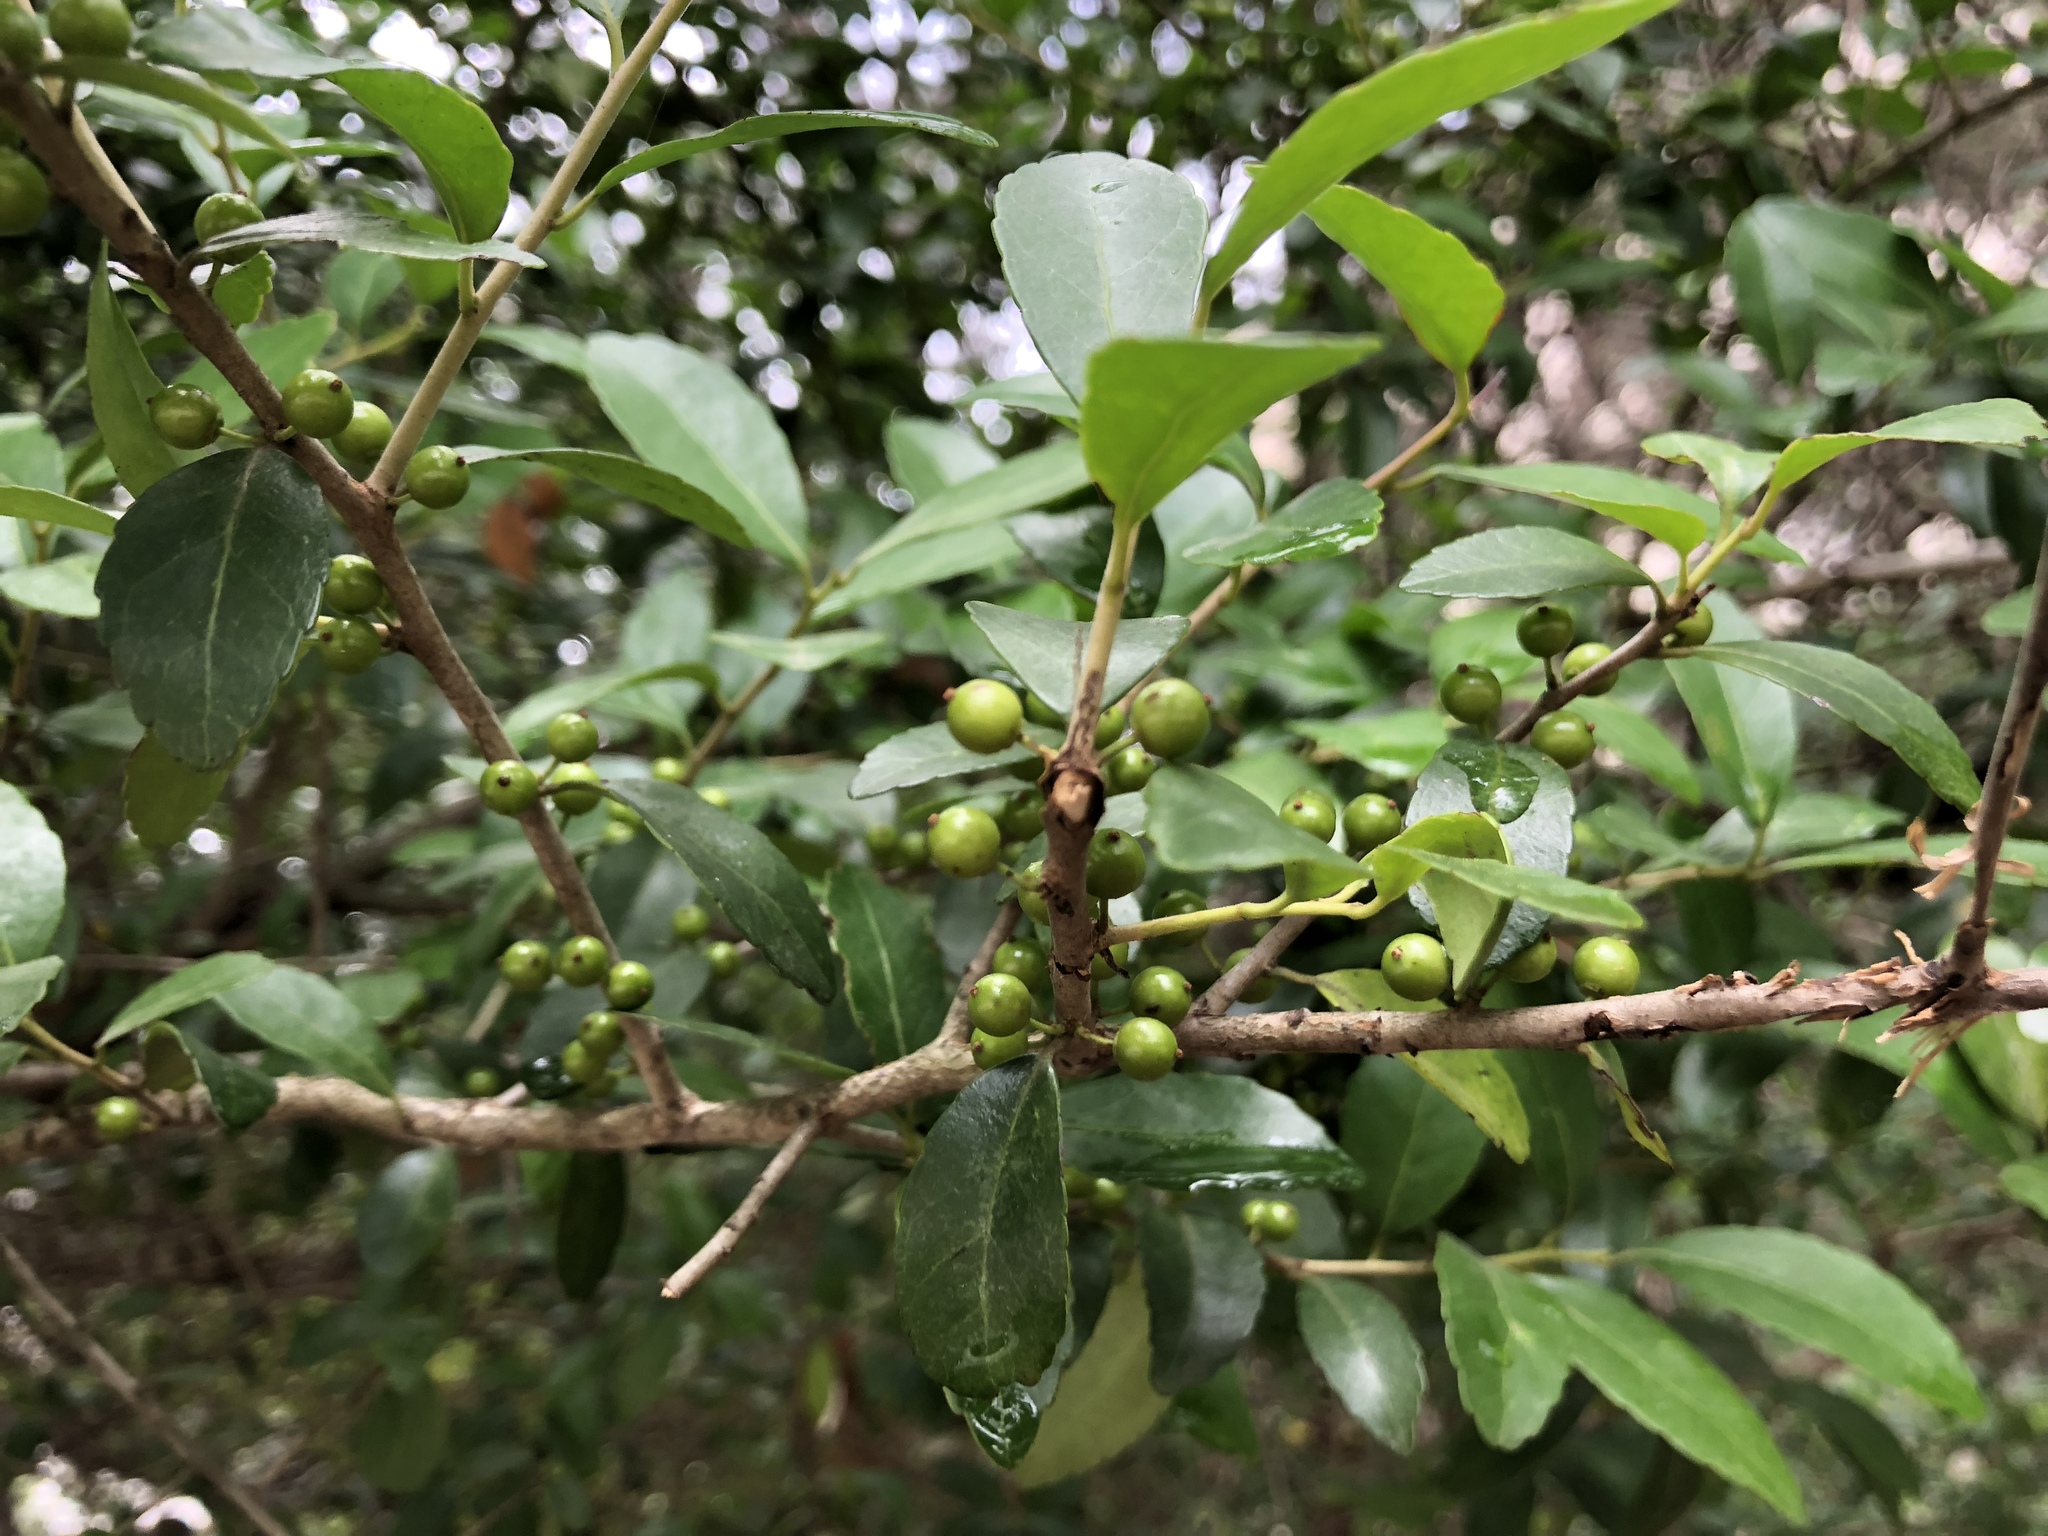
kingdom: Plantae
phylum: Tracheophyta
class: Magnoliopsida
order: Aquifoliales
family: Aquifoliaceae
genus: Ilex
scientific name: Ilex vomitoria
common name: Yaupon holly
